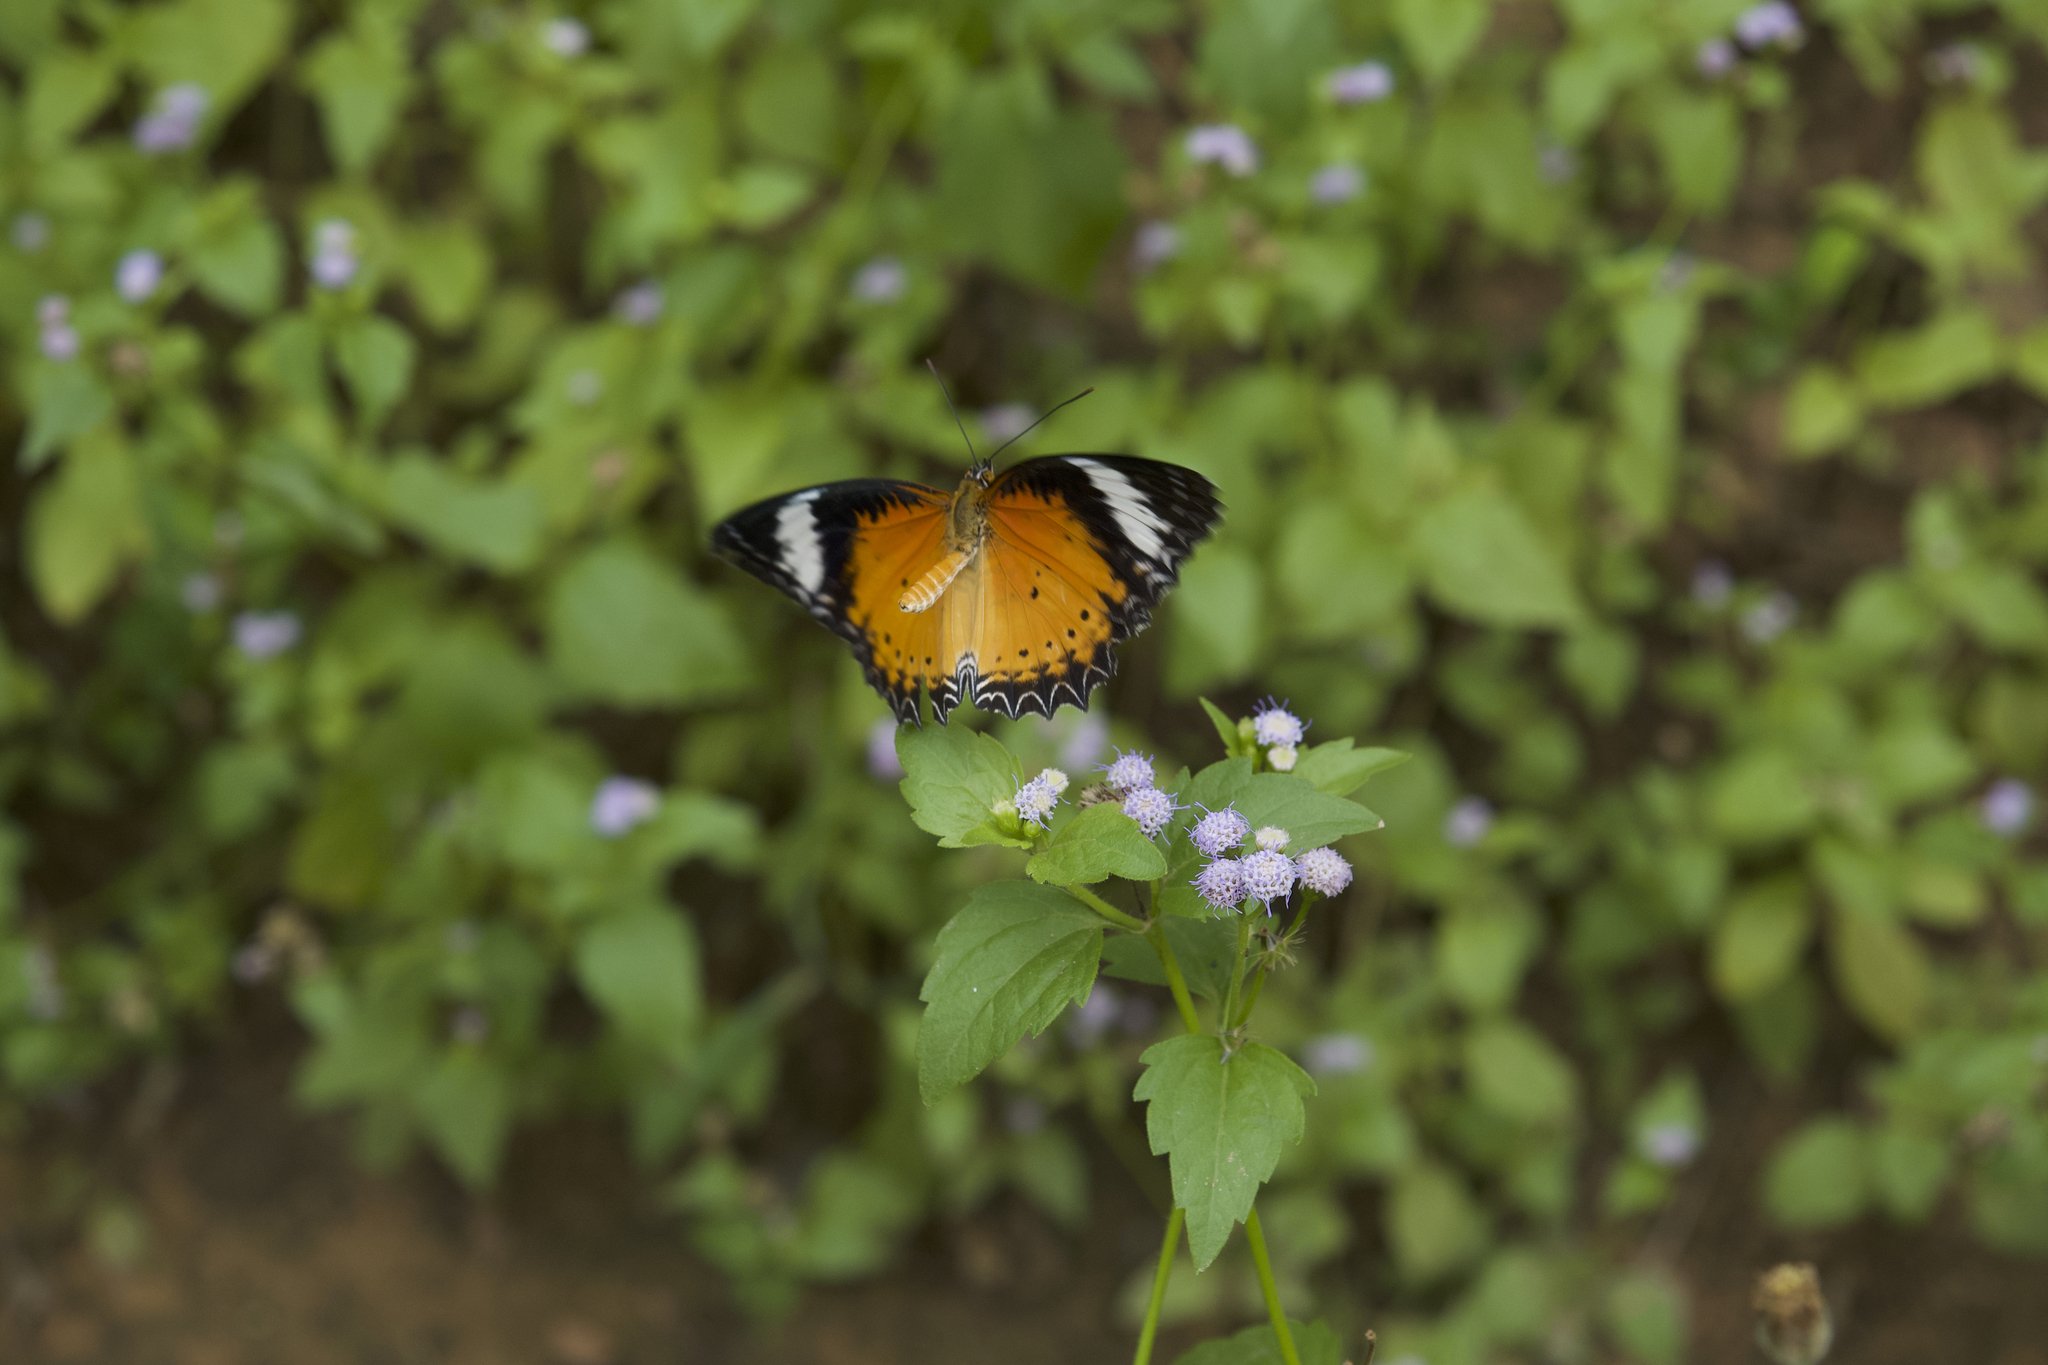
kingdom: Animalia
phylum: Arthropoda
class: Insecta
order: Lepidoptera
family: Nymphalidae
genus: Cethosia
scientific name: Cethosia cyane
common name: Leopard lacewing butterfly
